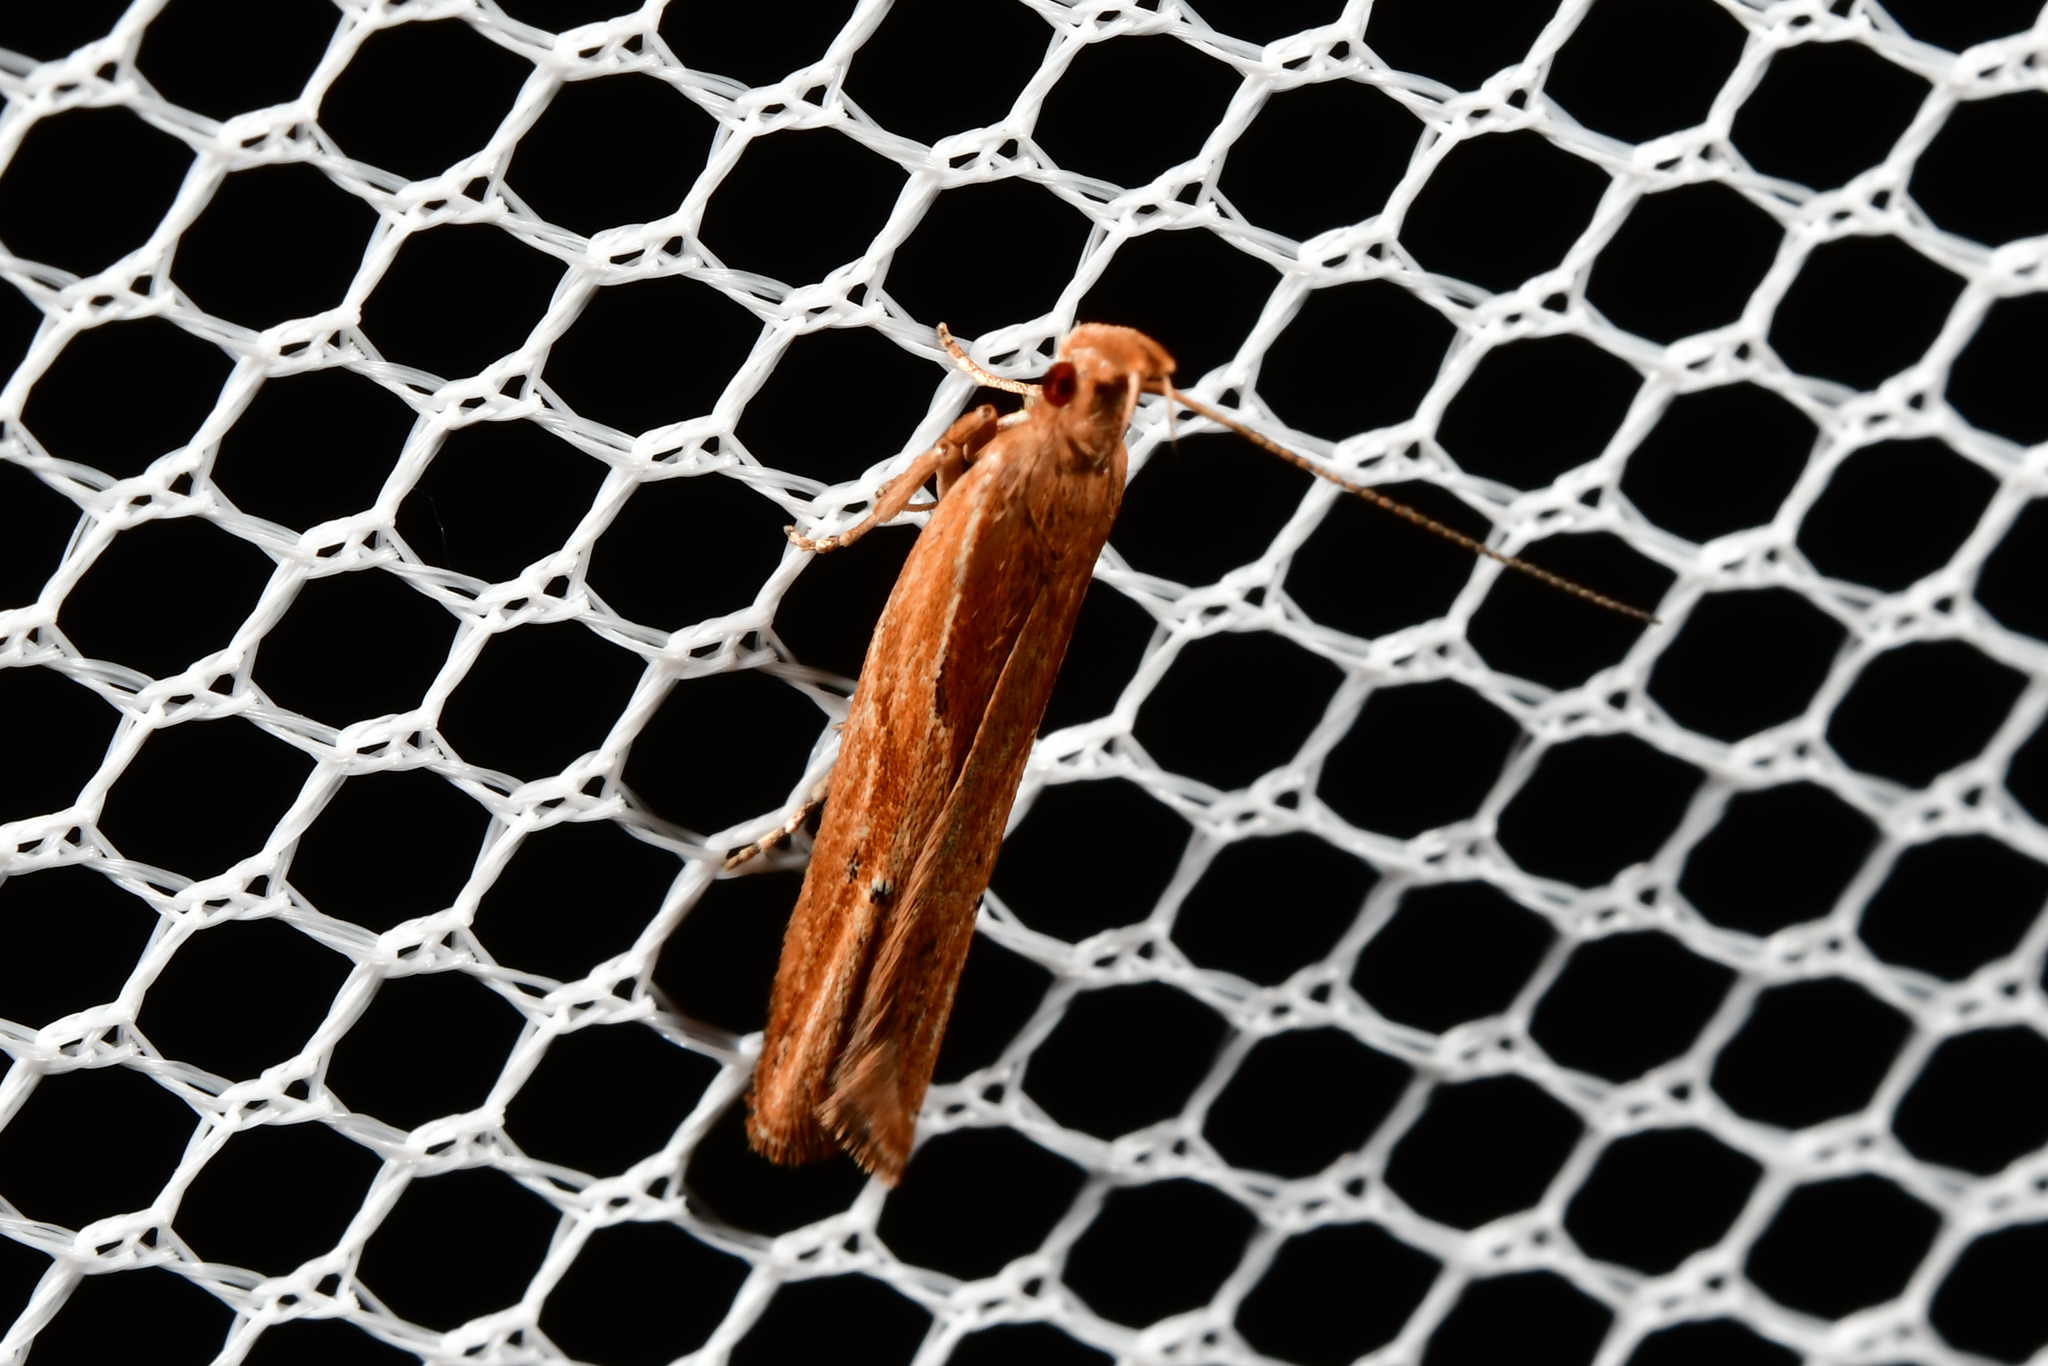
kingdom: Animalia
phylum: Arthropoda
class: Insecta
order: Lepidoptera
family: Depressariidae
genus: Eutorna
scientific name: Eutorna symmorpha
